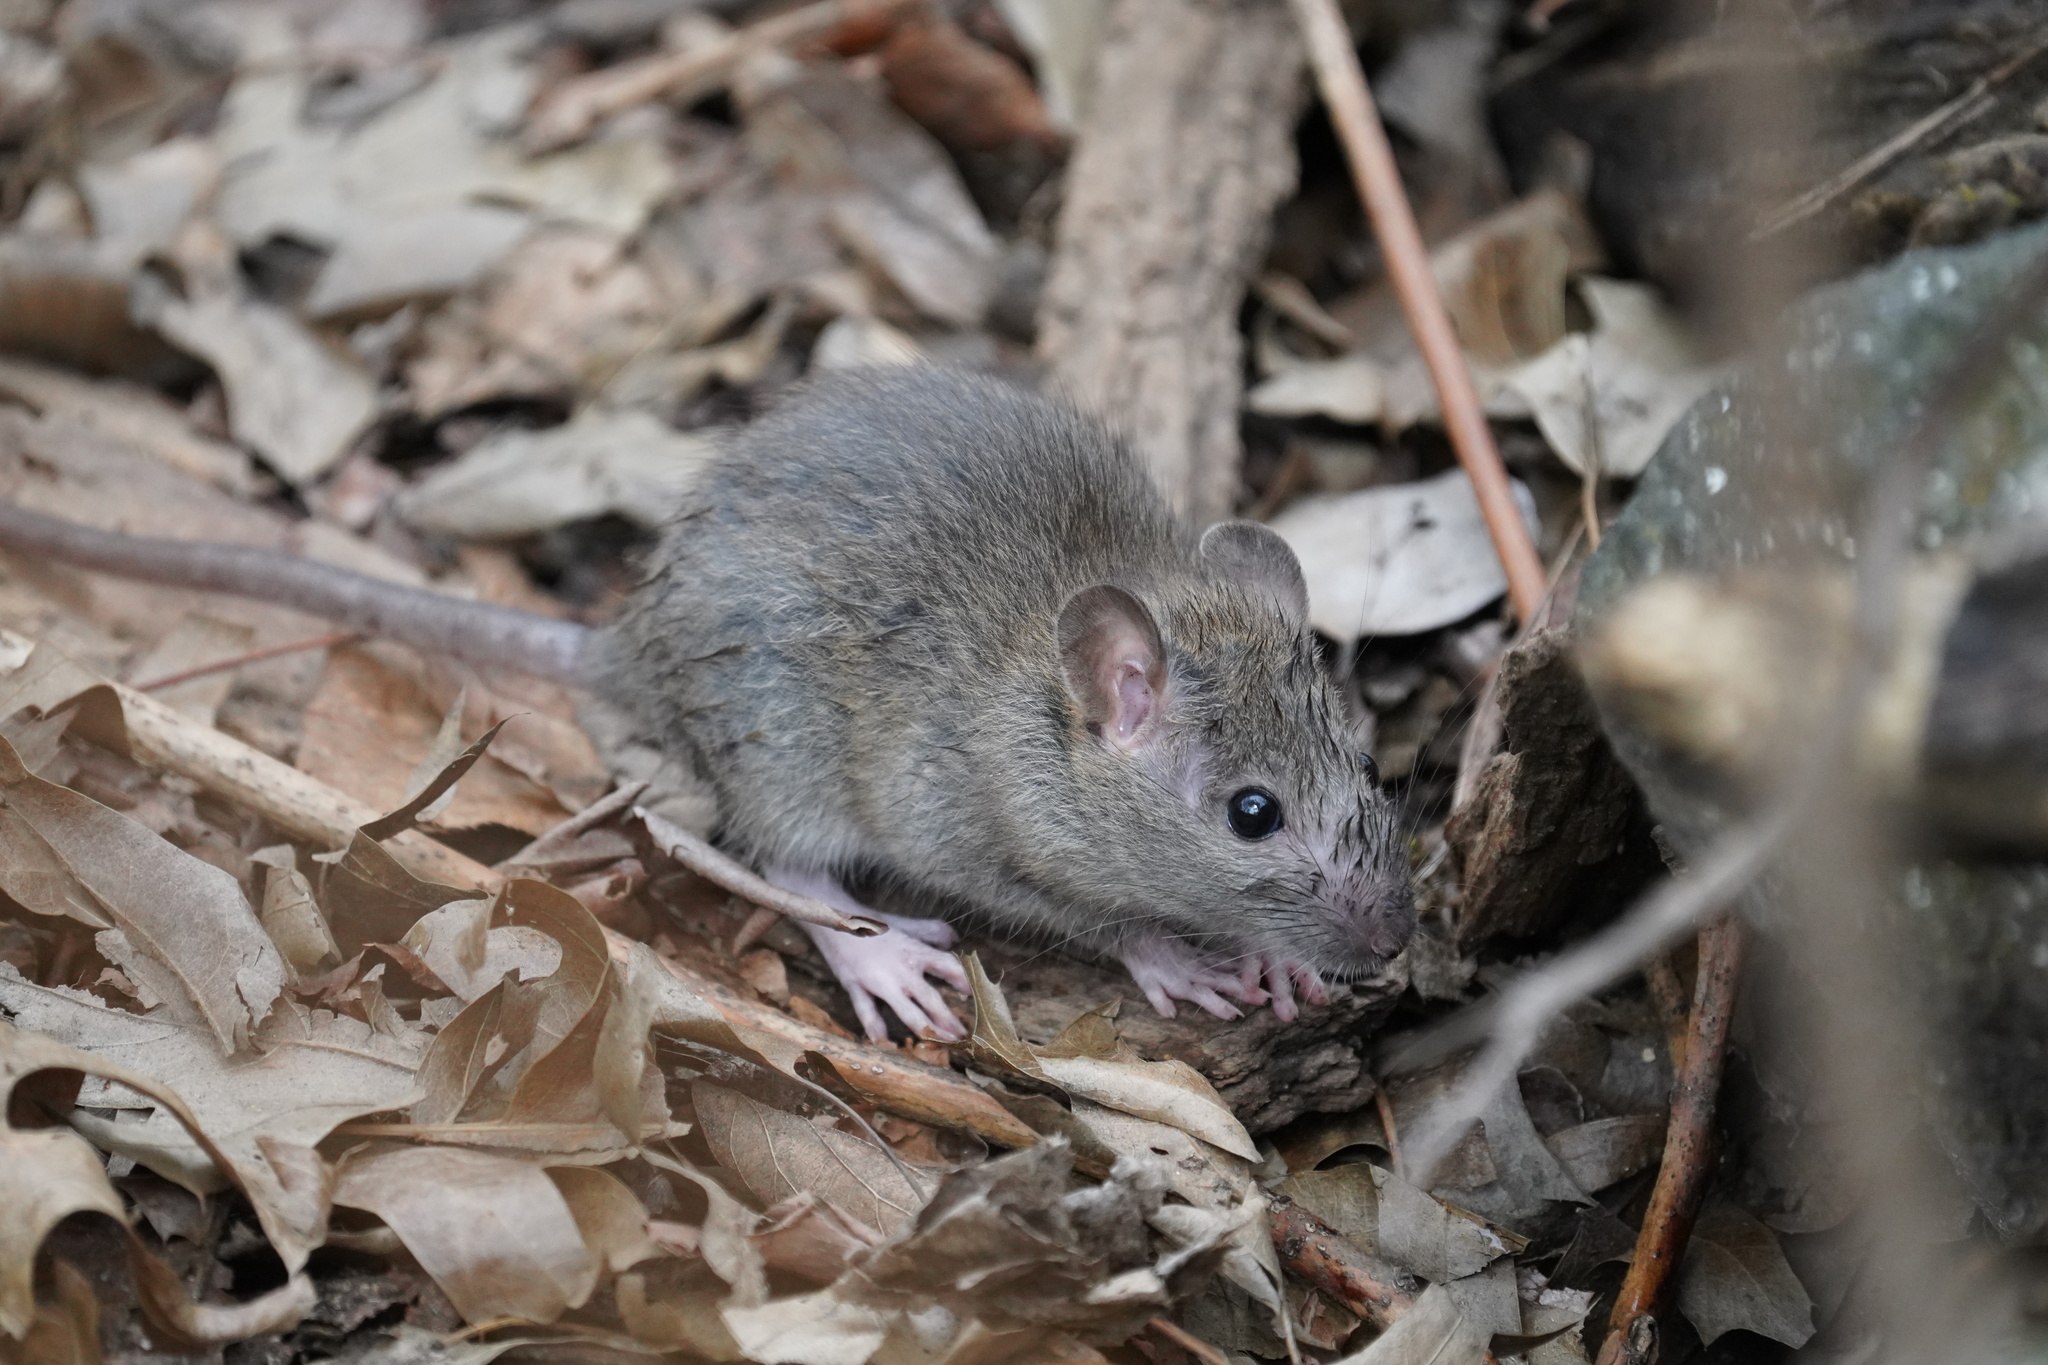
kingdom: Animalia
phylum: Chordata
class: Mammalia
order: Rodentia
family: Muridae
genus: Rattus
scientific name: Rattus norvegicus
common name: Brown rat
